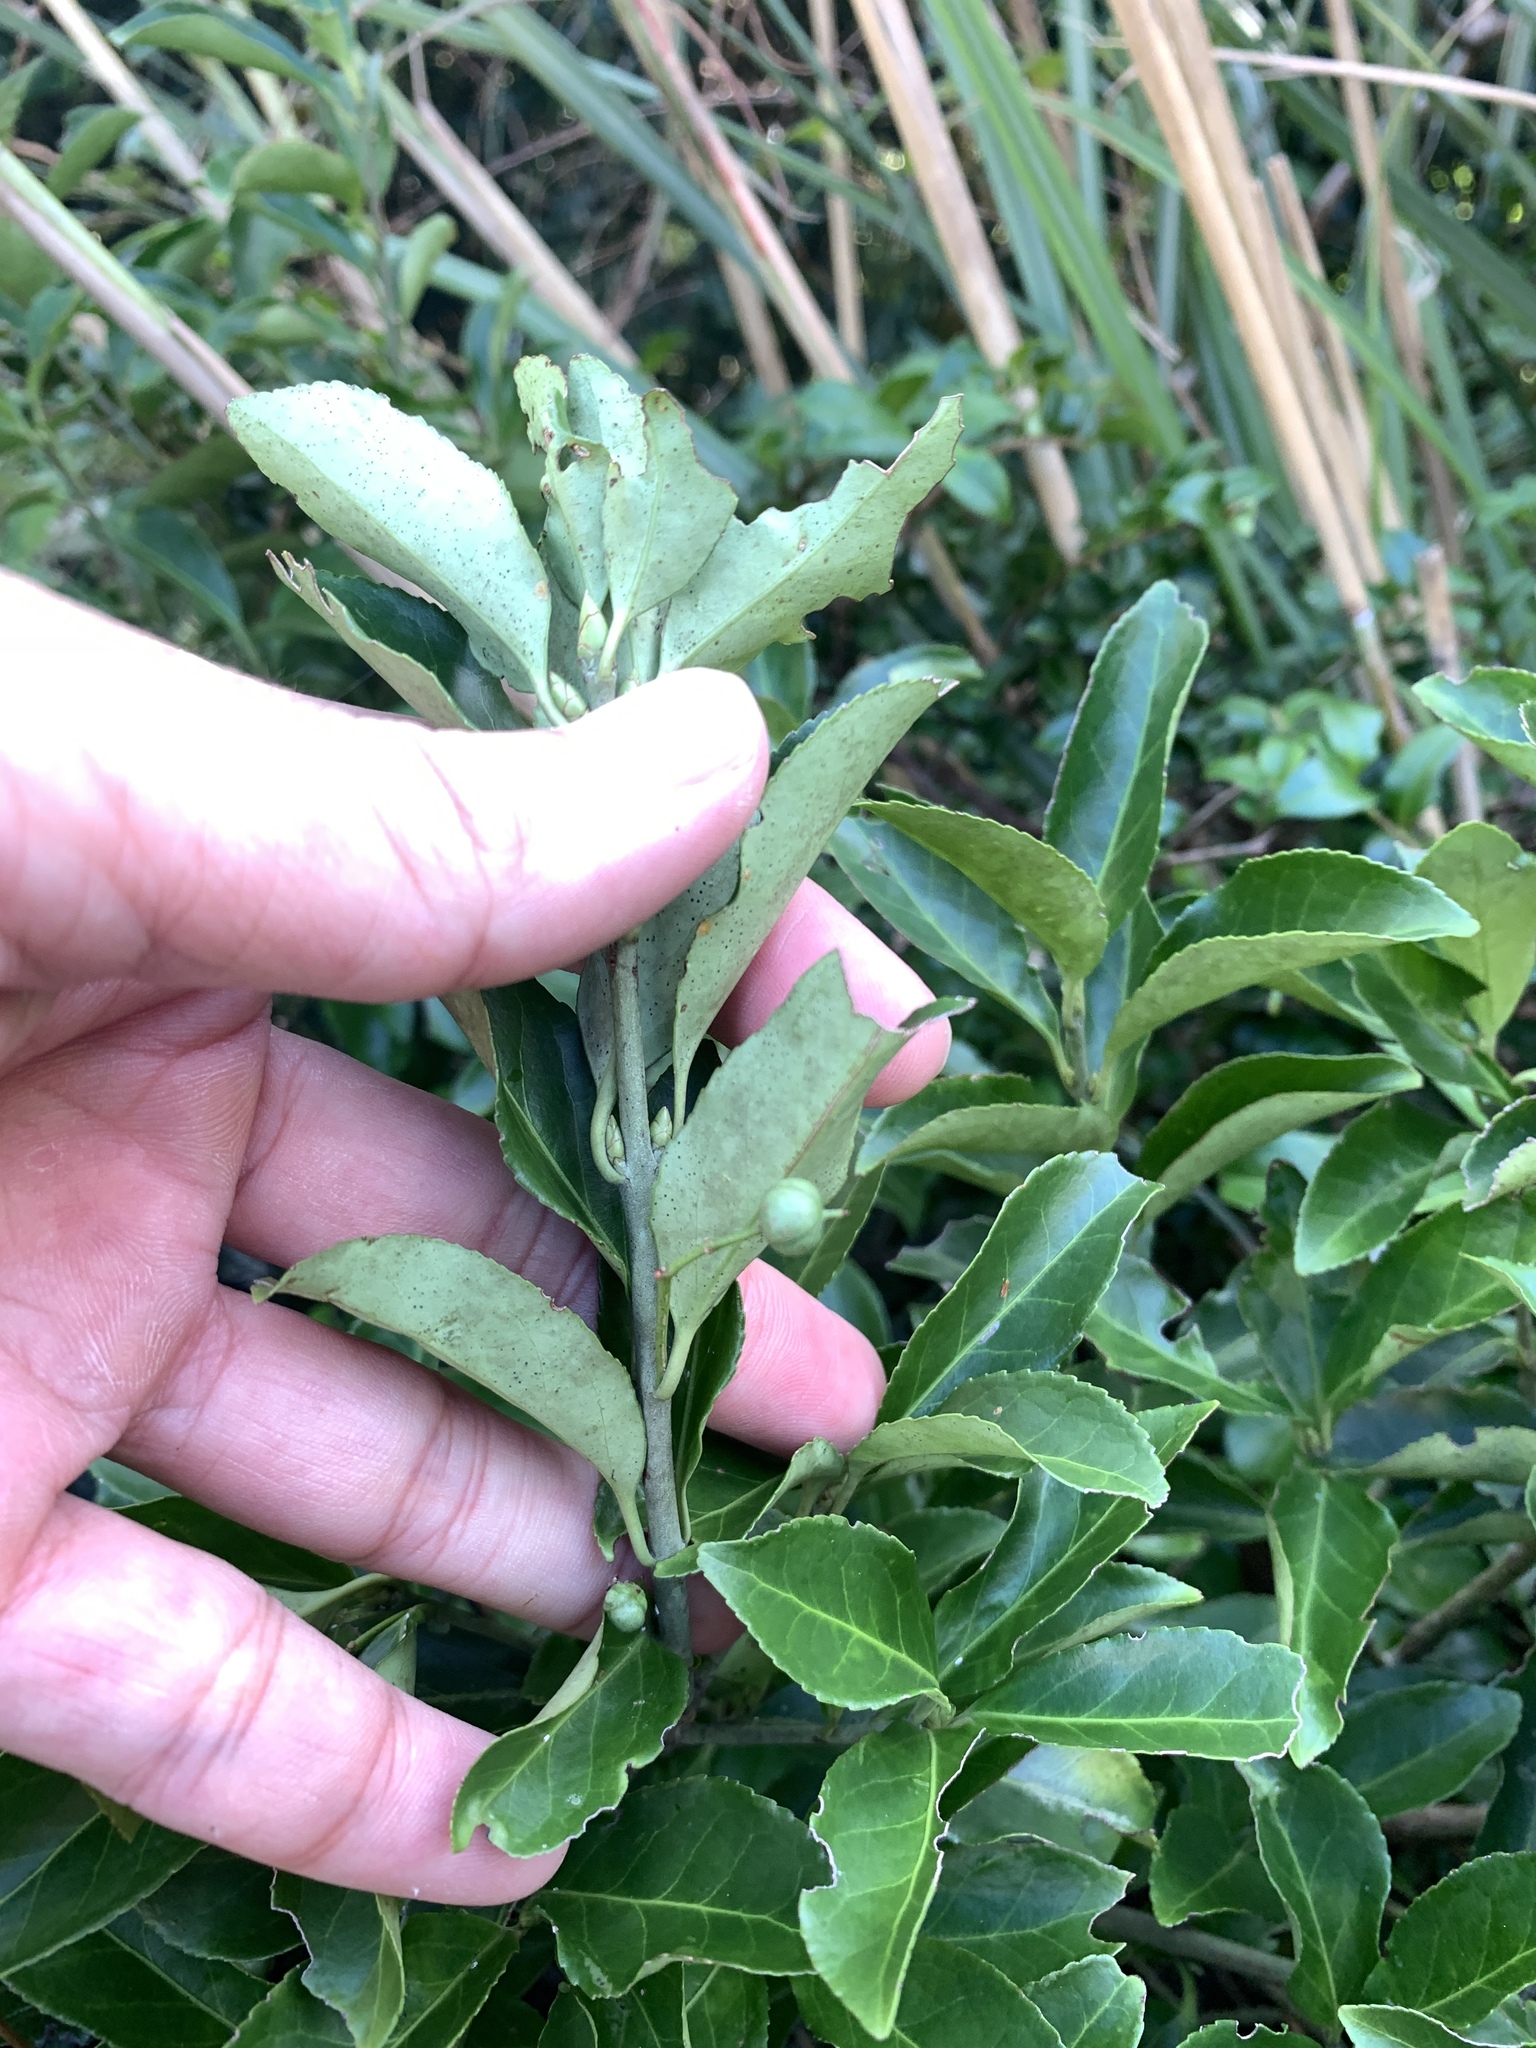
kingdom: Plantae
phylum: Tracheophyta
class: Magnoliopsida
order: Celastrales
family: Celastraceae
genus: Euonymus
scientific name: Euonymus spraguei
